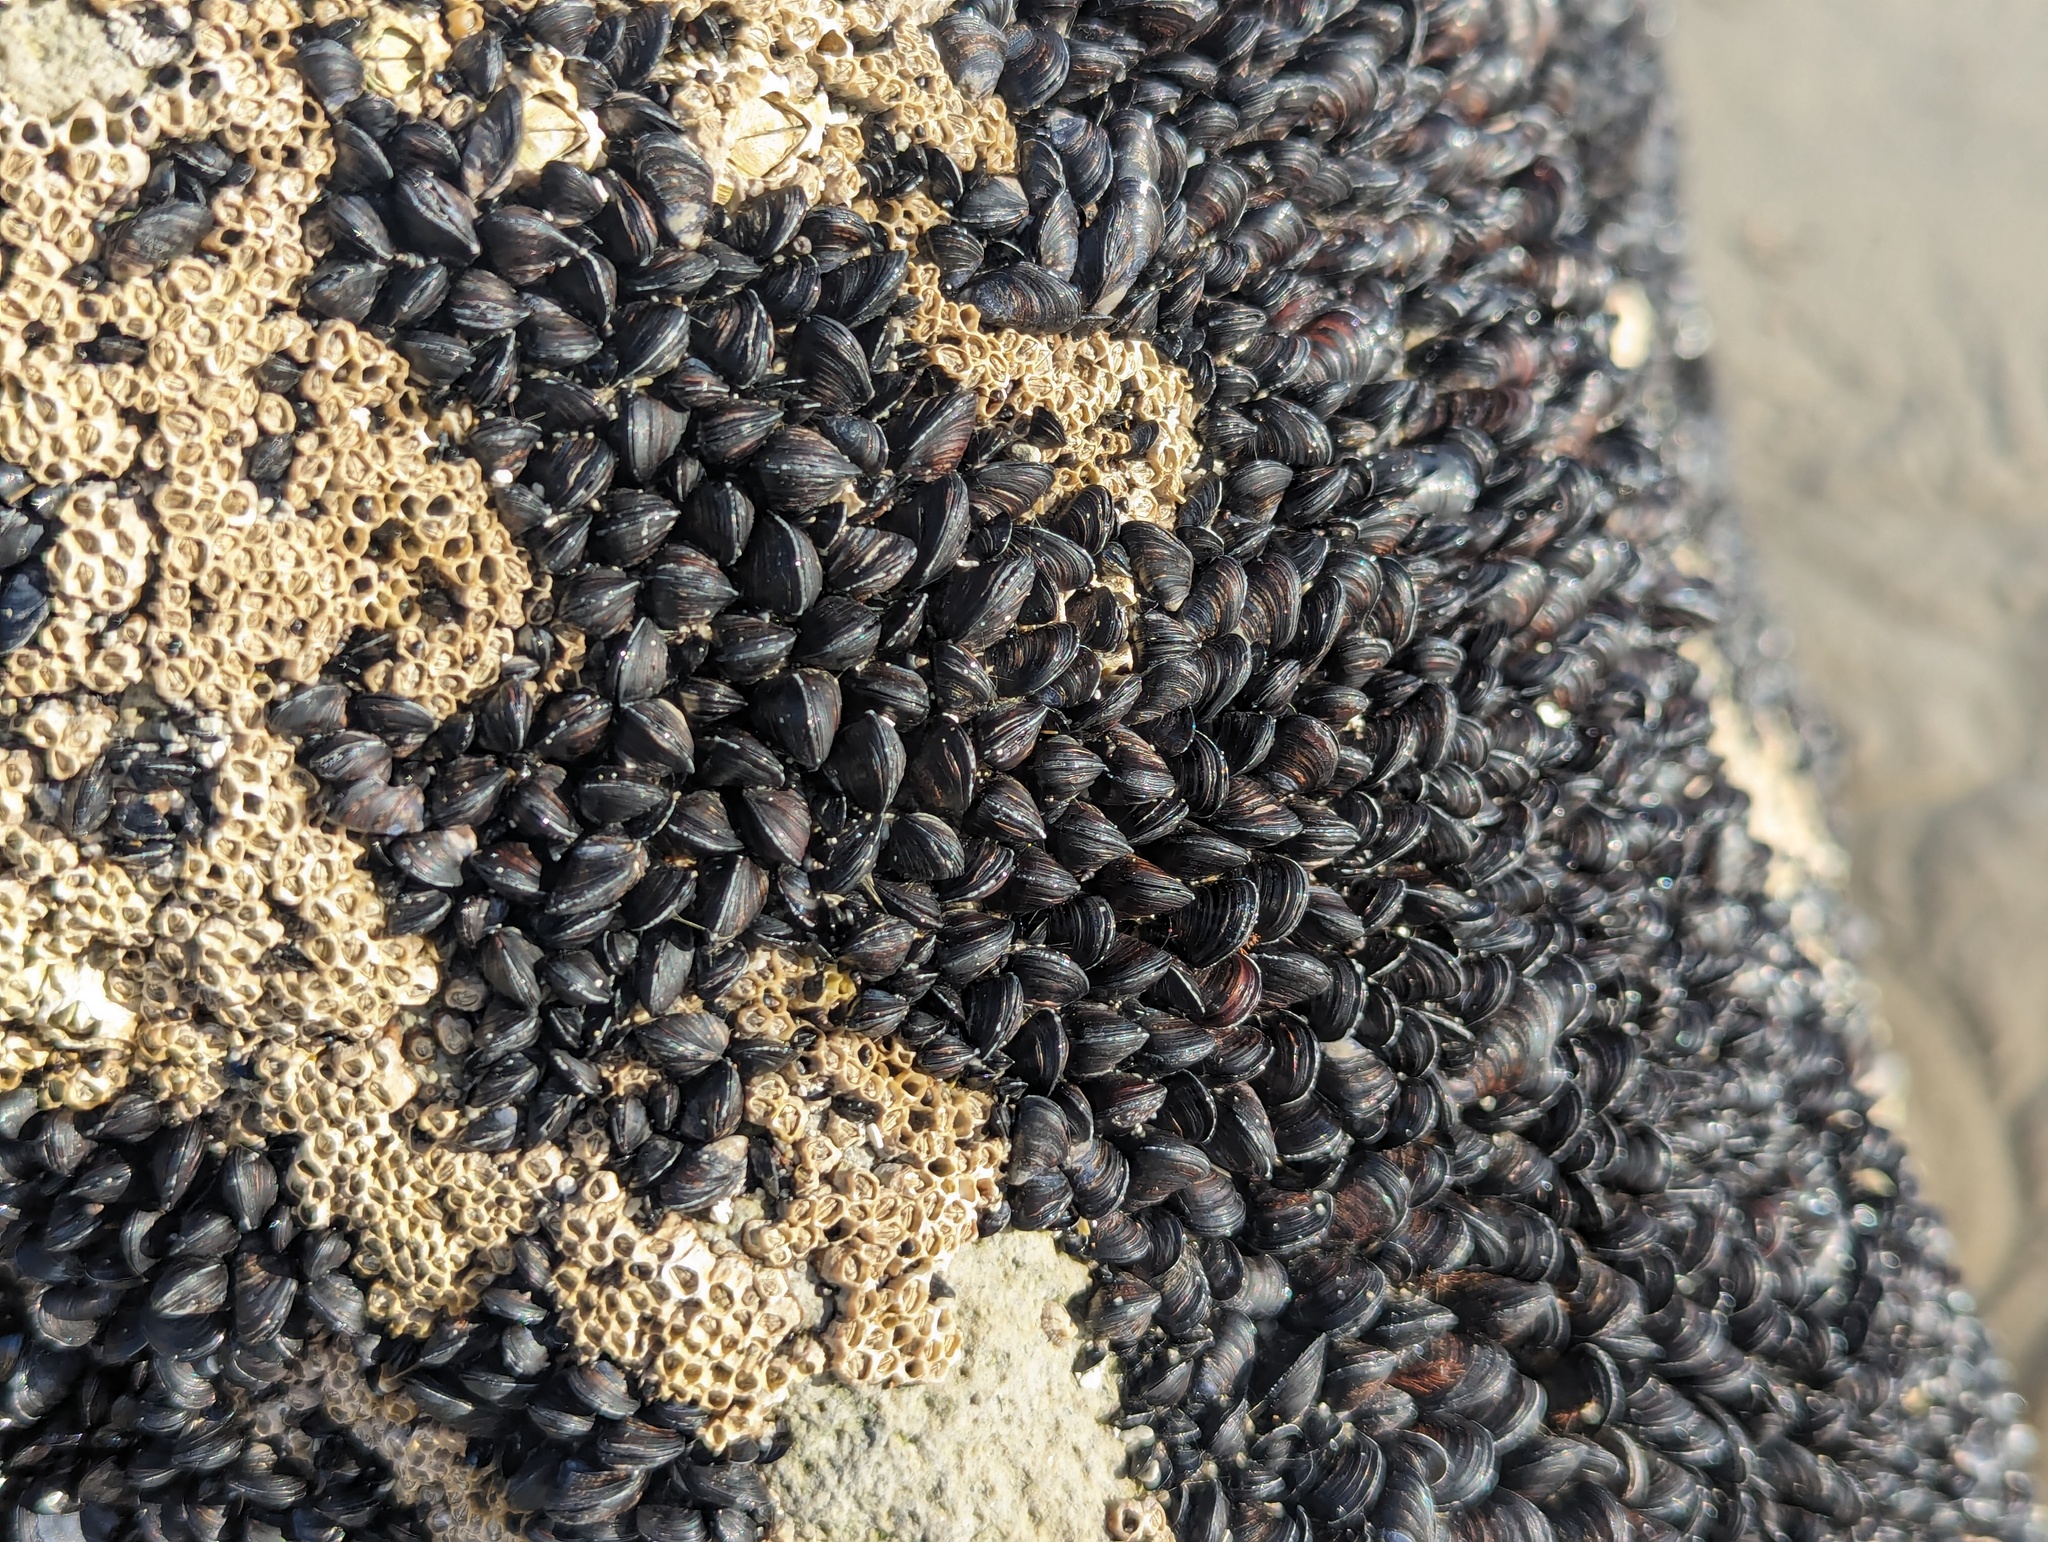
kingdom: Animalia
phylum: Mollusca
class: Bivalvia
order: Mytilida
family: Mytilidae
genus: Xenostrobus
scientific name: Xenostrobus neozelanicus
